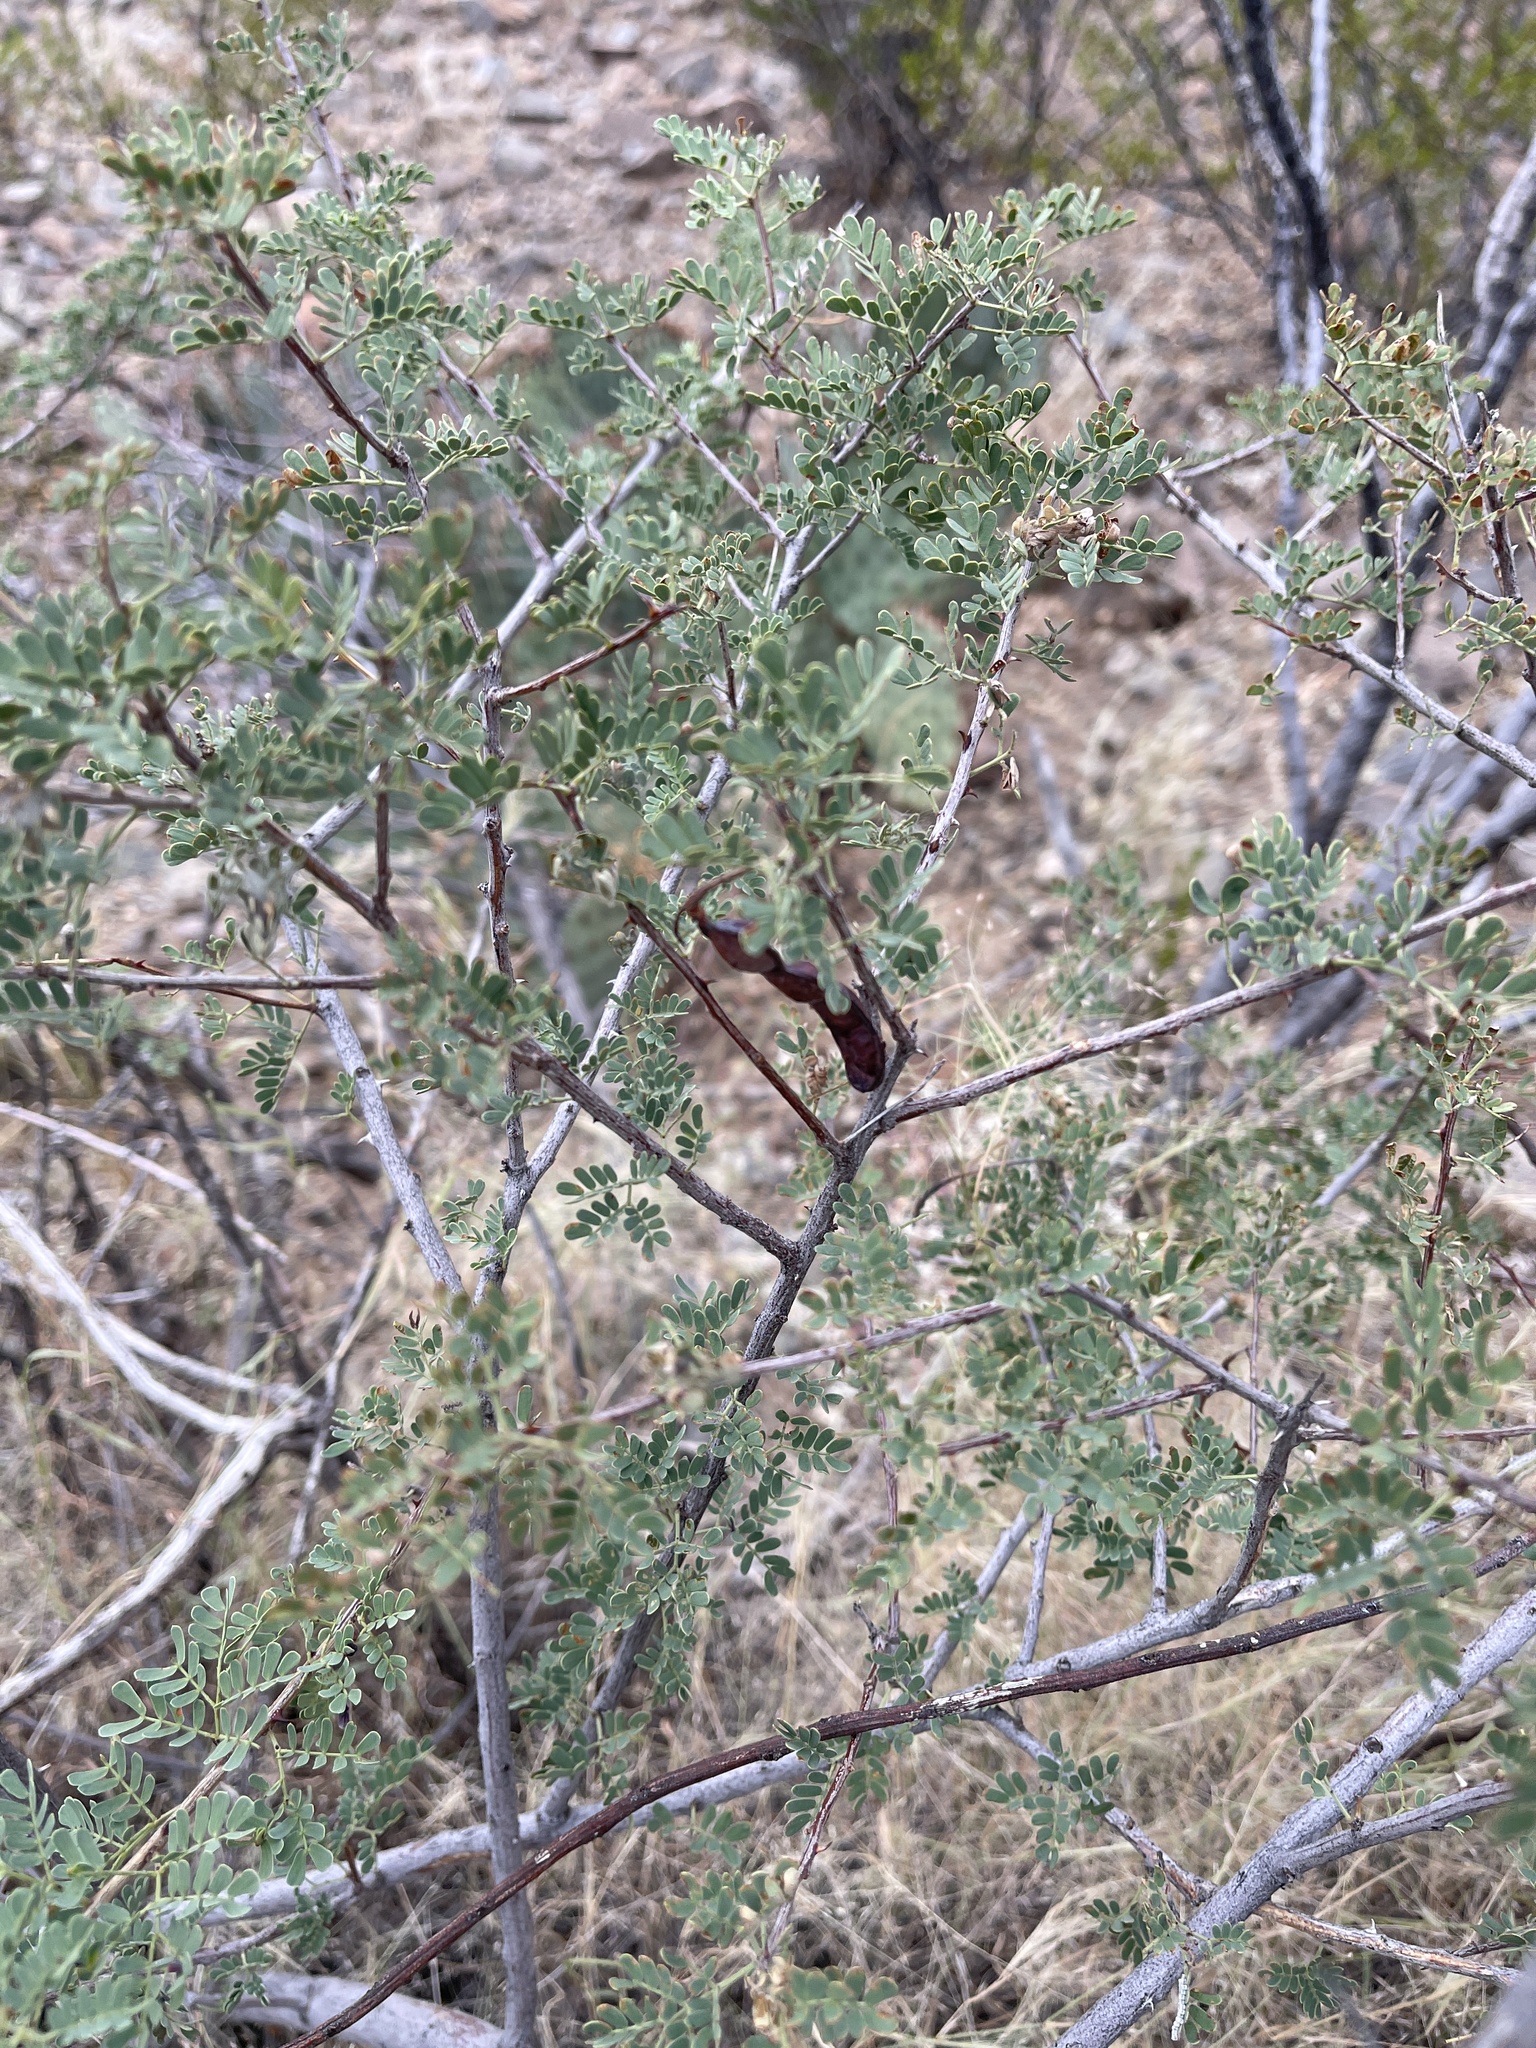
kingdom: Plantae
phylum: Tracheophyta
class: Magnoliopsida
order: Fabales
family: Fabaceae
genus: Senegalia
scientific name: Senegalia greggii
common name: Texas-mimosa
